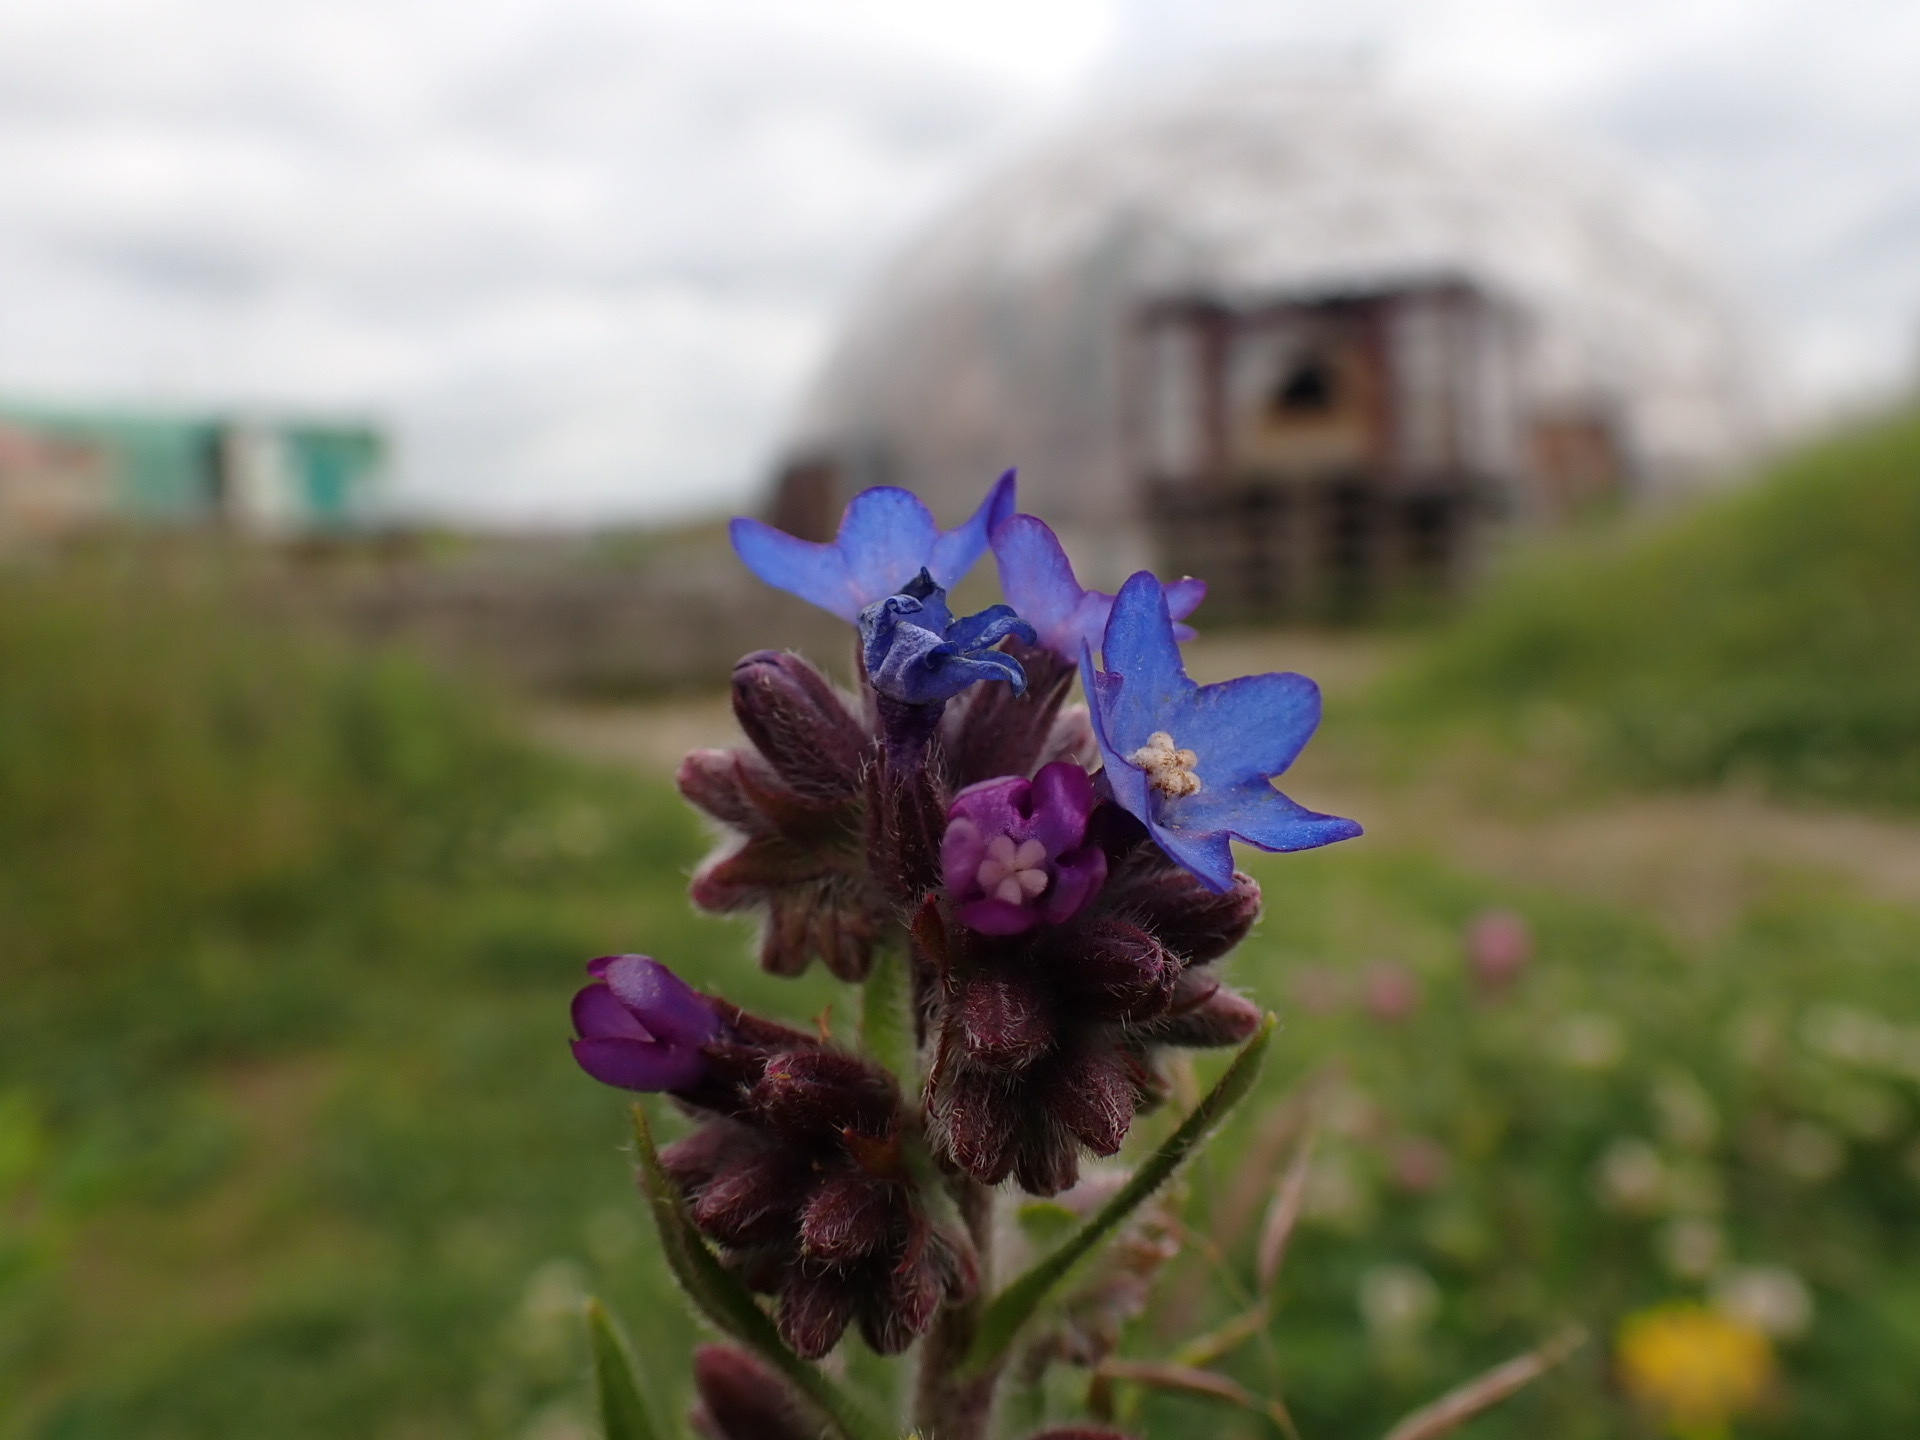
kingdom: Plantae
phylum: Tracheophyta
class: Magnoliopsida
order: Boraginales
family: Boraginaceae
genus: Anchusa
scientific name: Anchusa officinalis
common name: Alkanet
